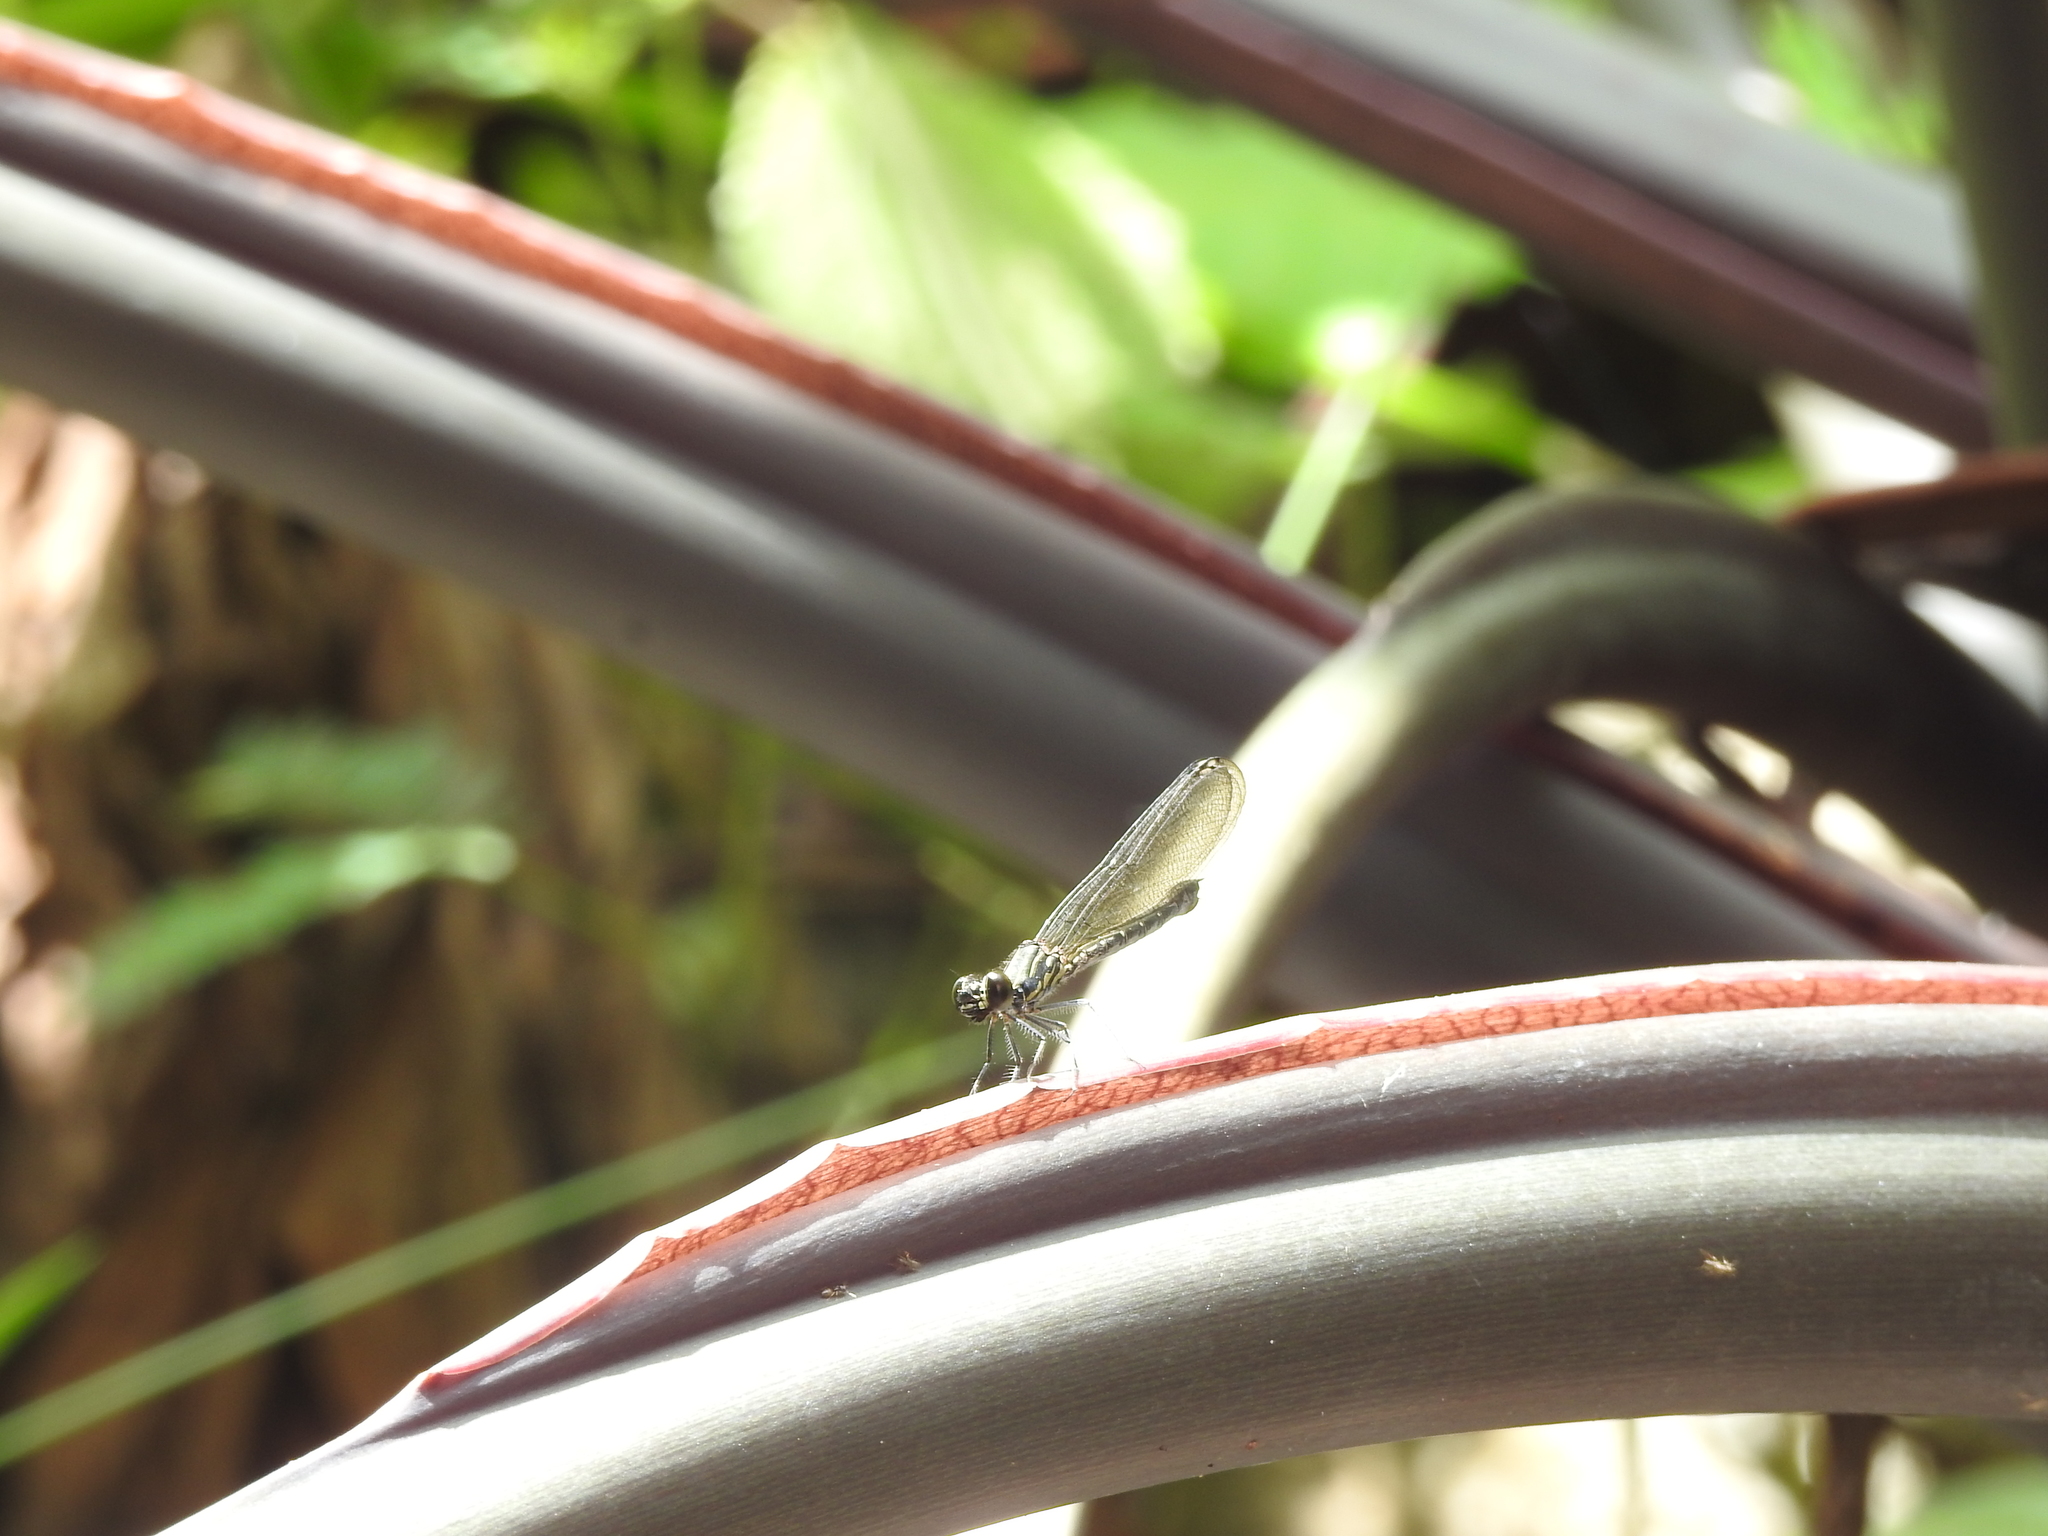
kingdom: Animalia
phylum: Arthropoda
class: Insecta
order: Odonata
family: Chlorocyphidae
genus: Heliocypha
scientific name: Heliocypha bisignata
